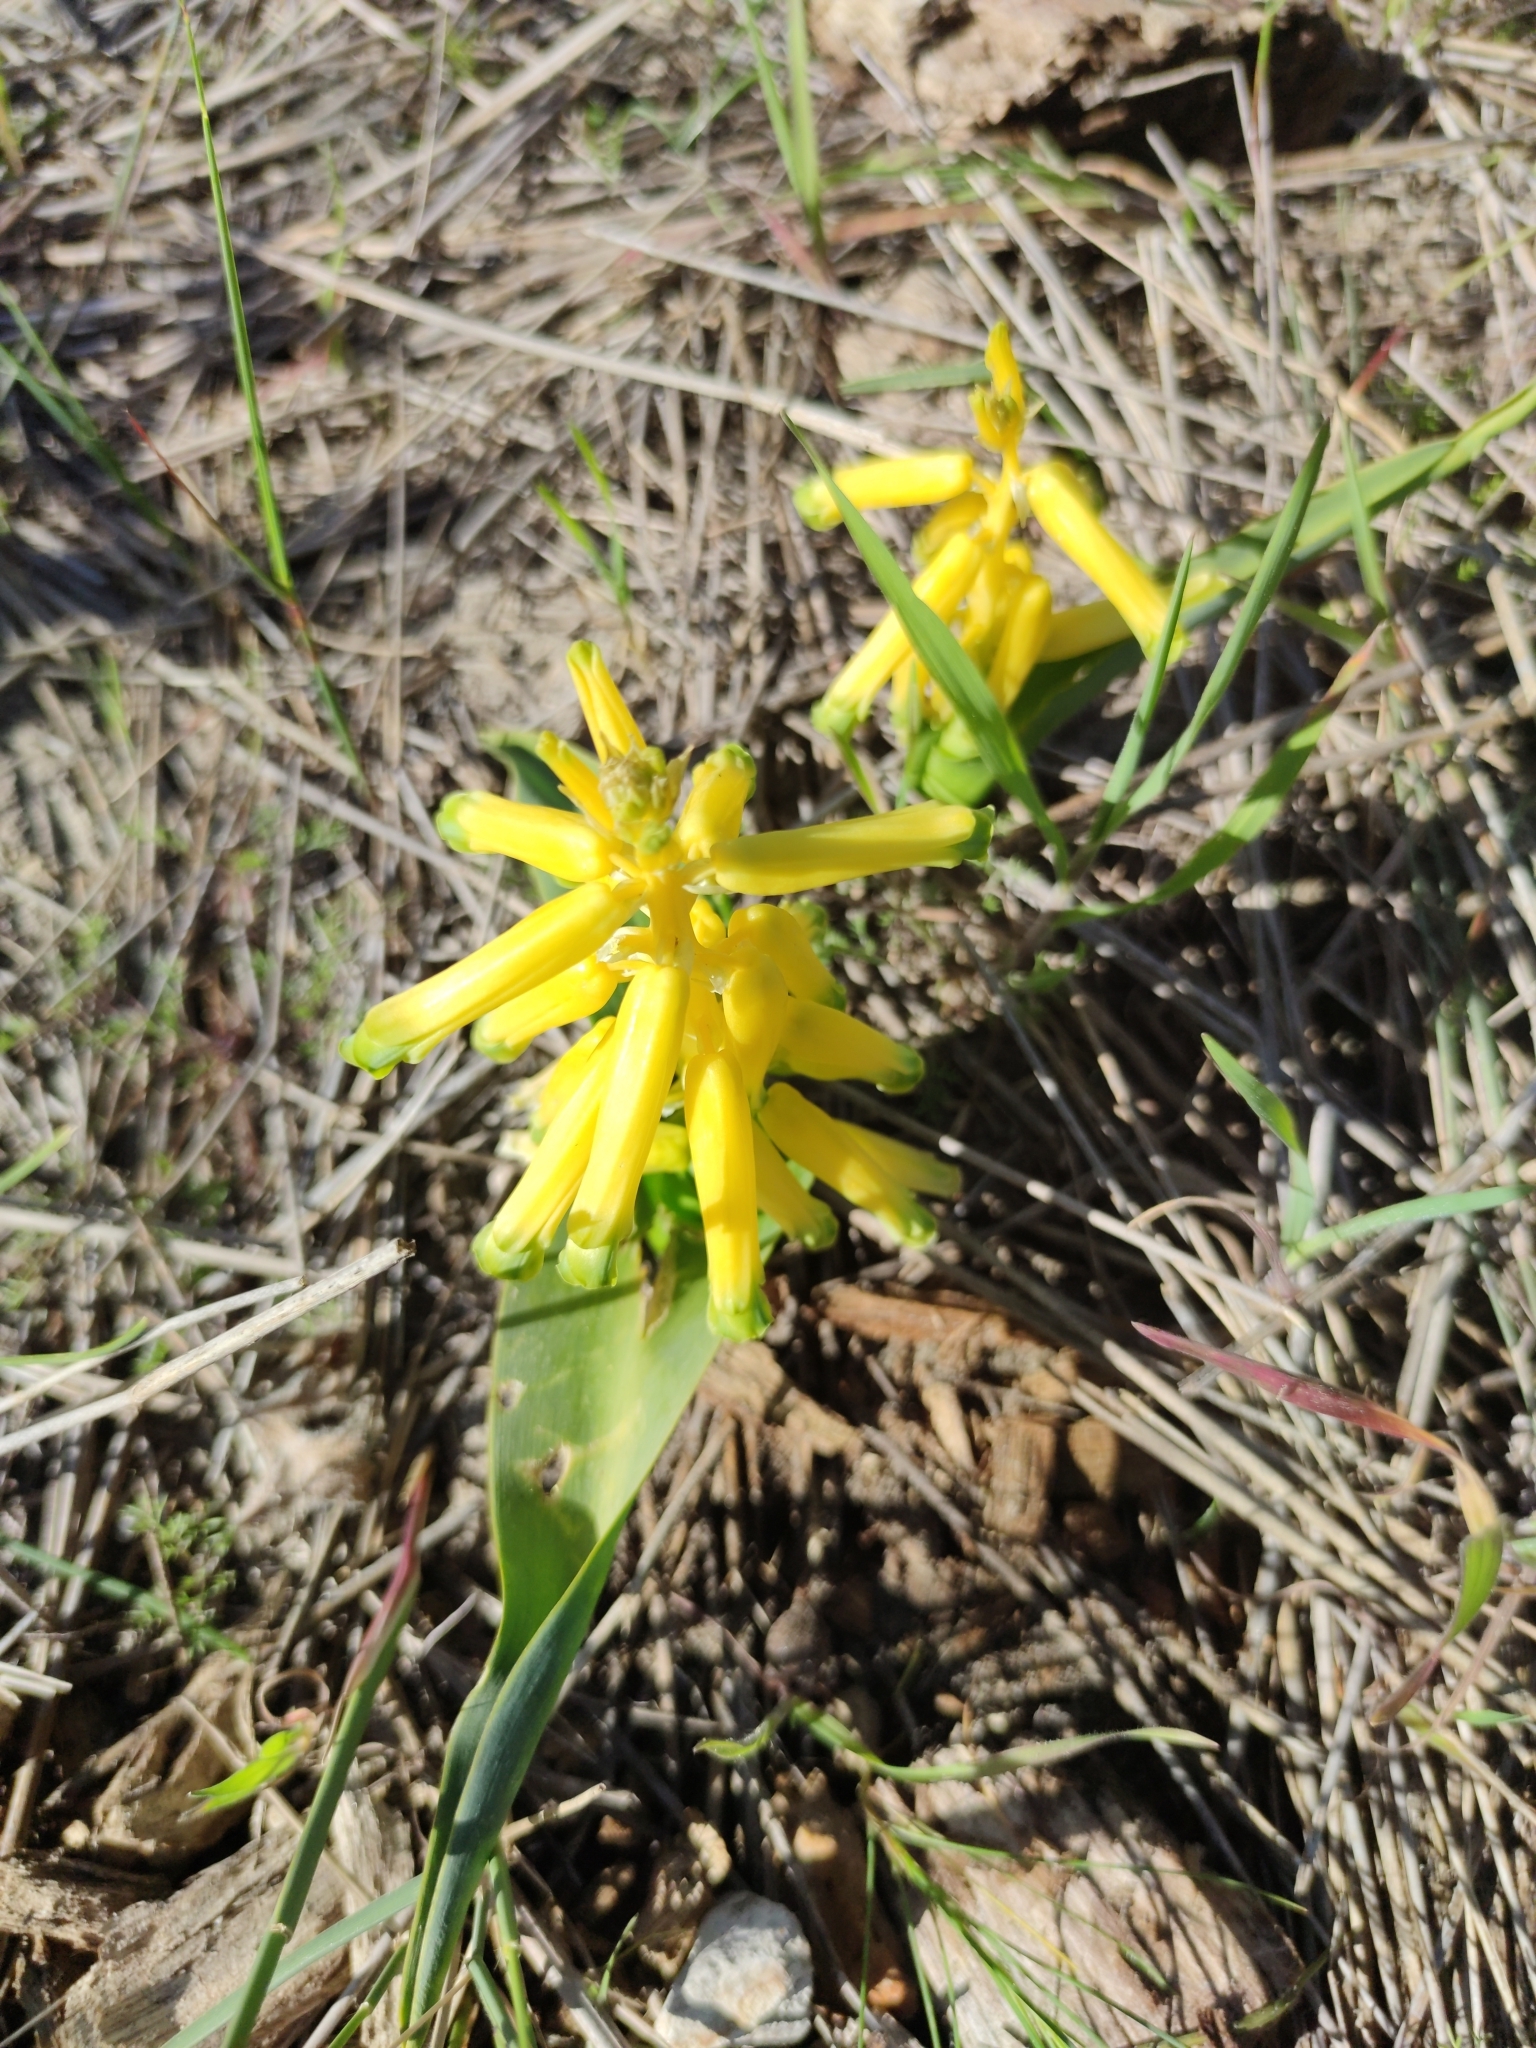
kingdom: Plantae
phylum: Tracheophyta
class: Liliopsida
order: Asparagales
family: Asparagaceae
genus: Lachenalia
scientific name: Lachenalia bulbifera
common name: Red lachenalia
